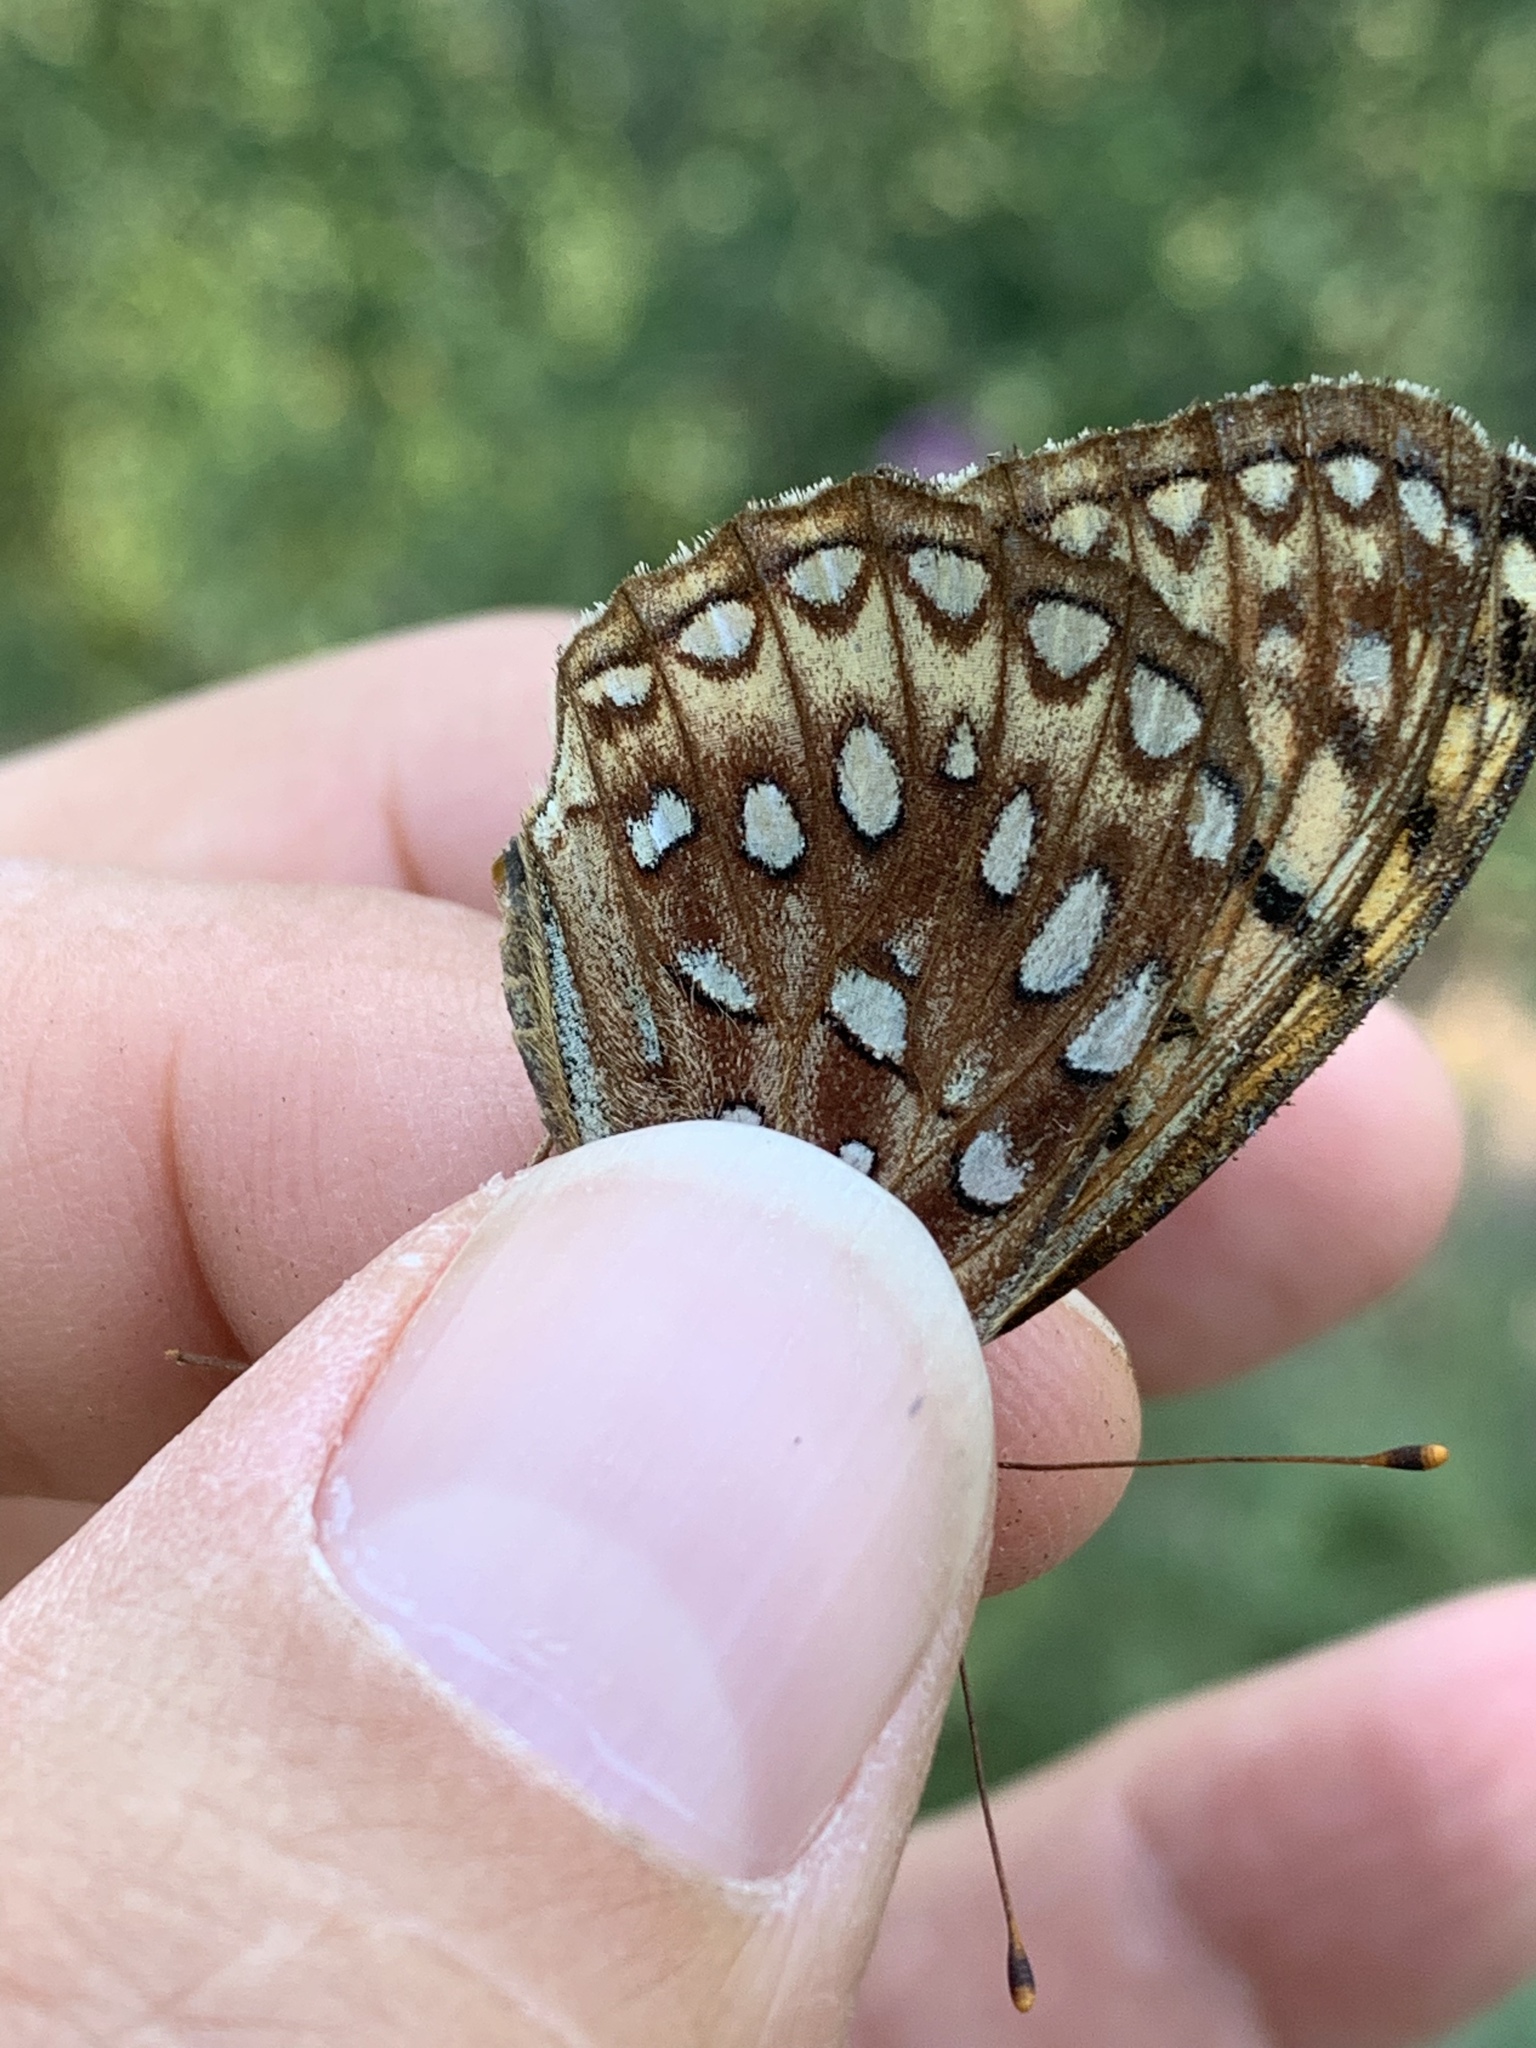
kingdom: Animalia
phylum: Arthropoda
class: Insecta
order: Lepidoptera
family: Nymphalidae
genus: Speyeria
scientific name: Speyeria atlantis
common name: Atlantis fritillary
